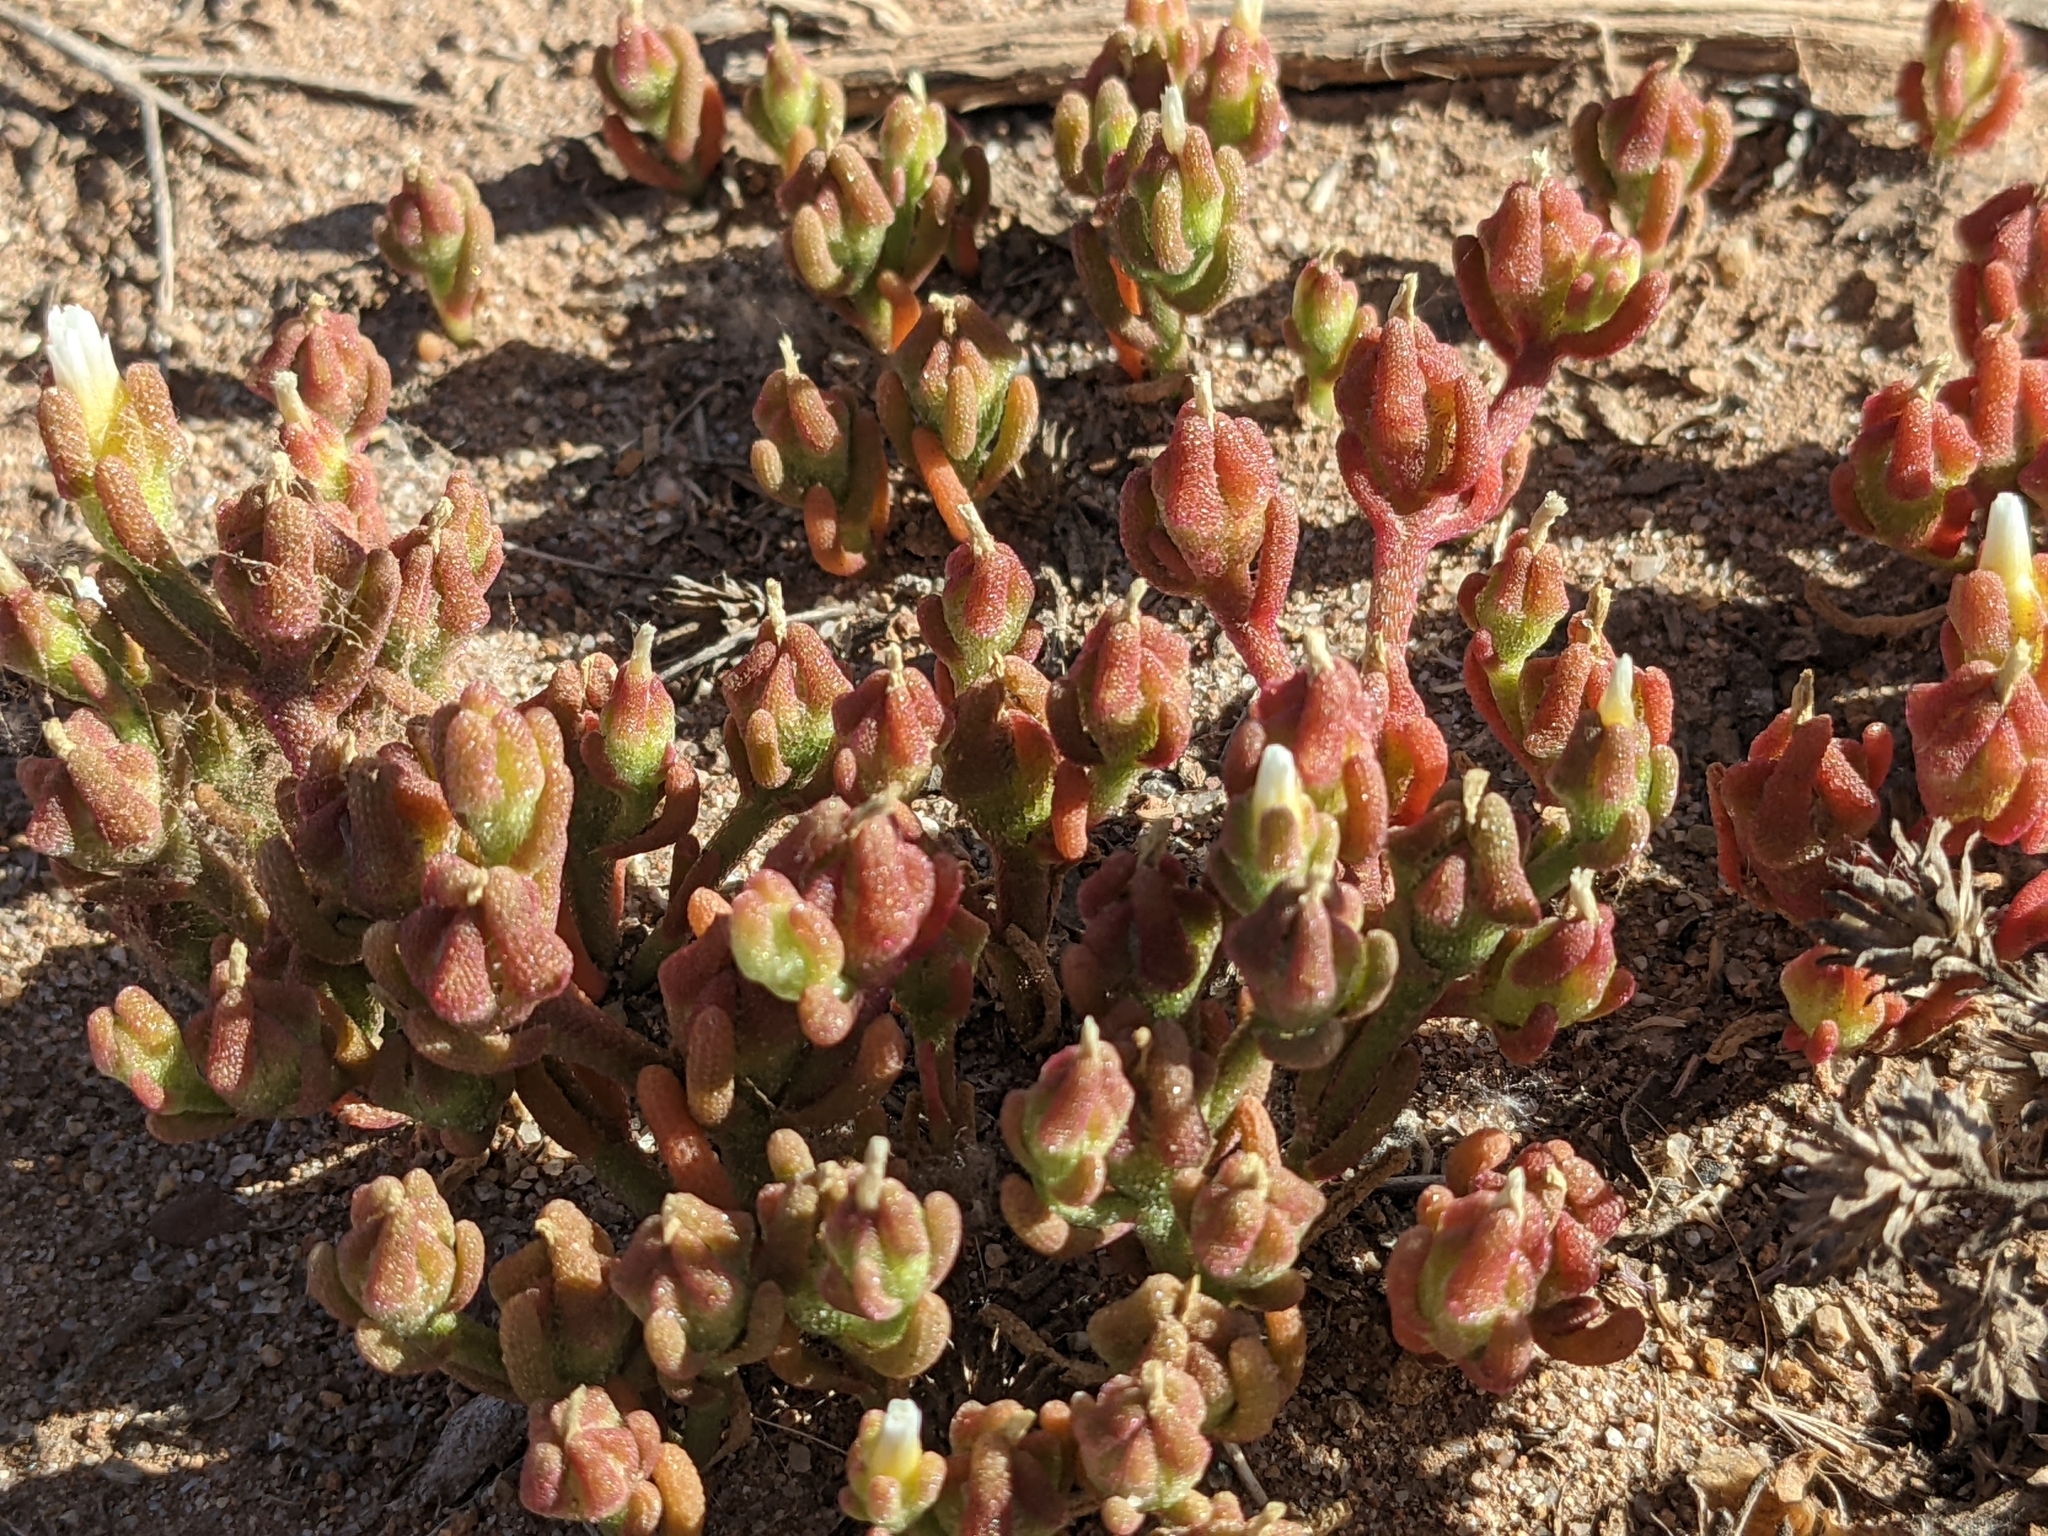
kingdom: Plantae
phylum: Tracheophyta
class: Magnoliopsida
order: Caryophyllales
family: Aizoaceae
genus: Mesembryanthemum
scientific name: Mesembryanthemum nodiflorum
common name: Slenderleaf iceplant
